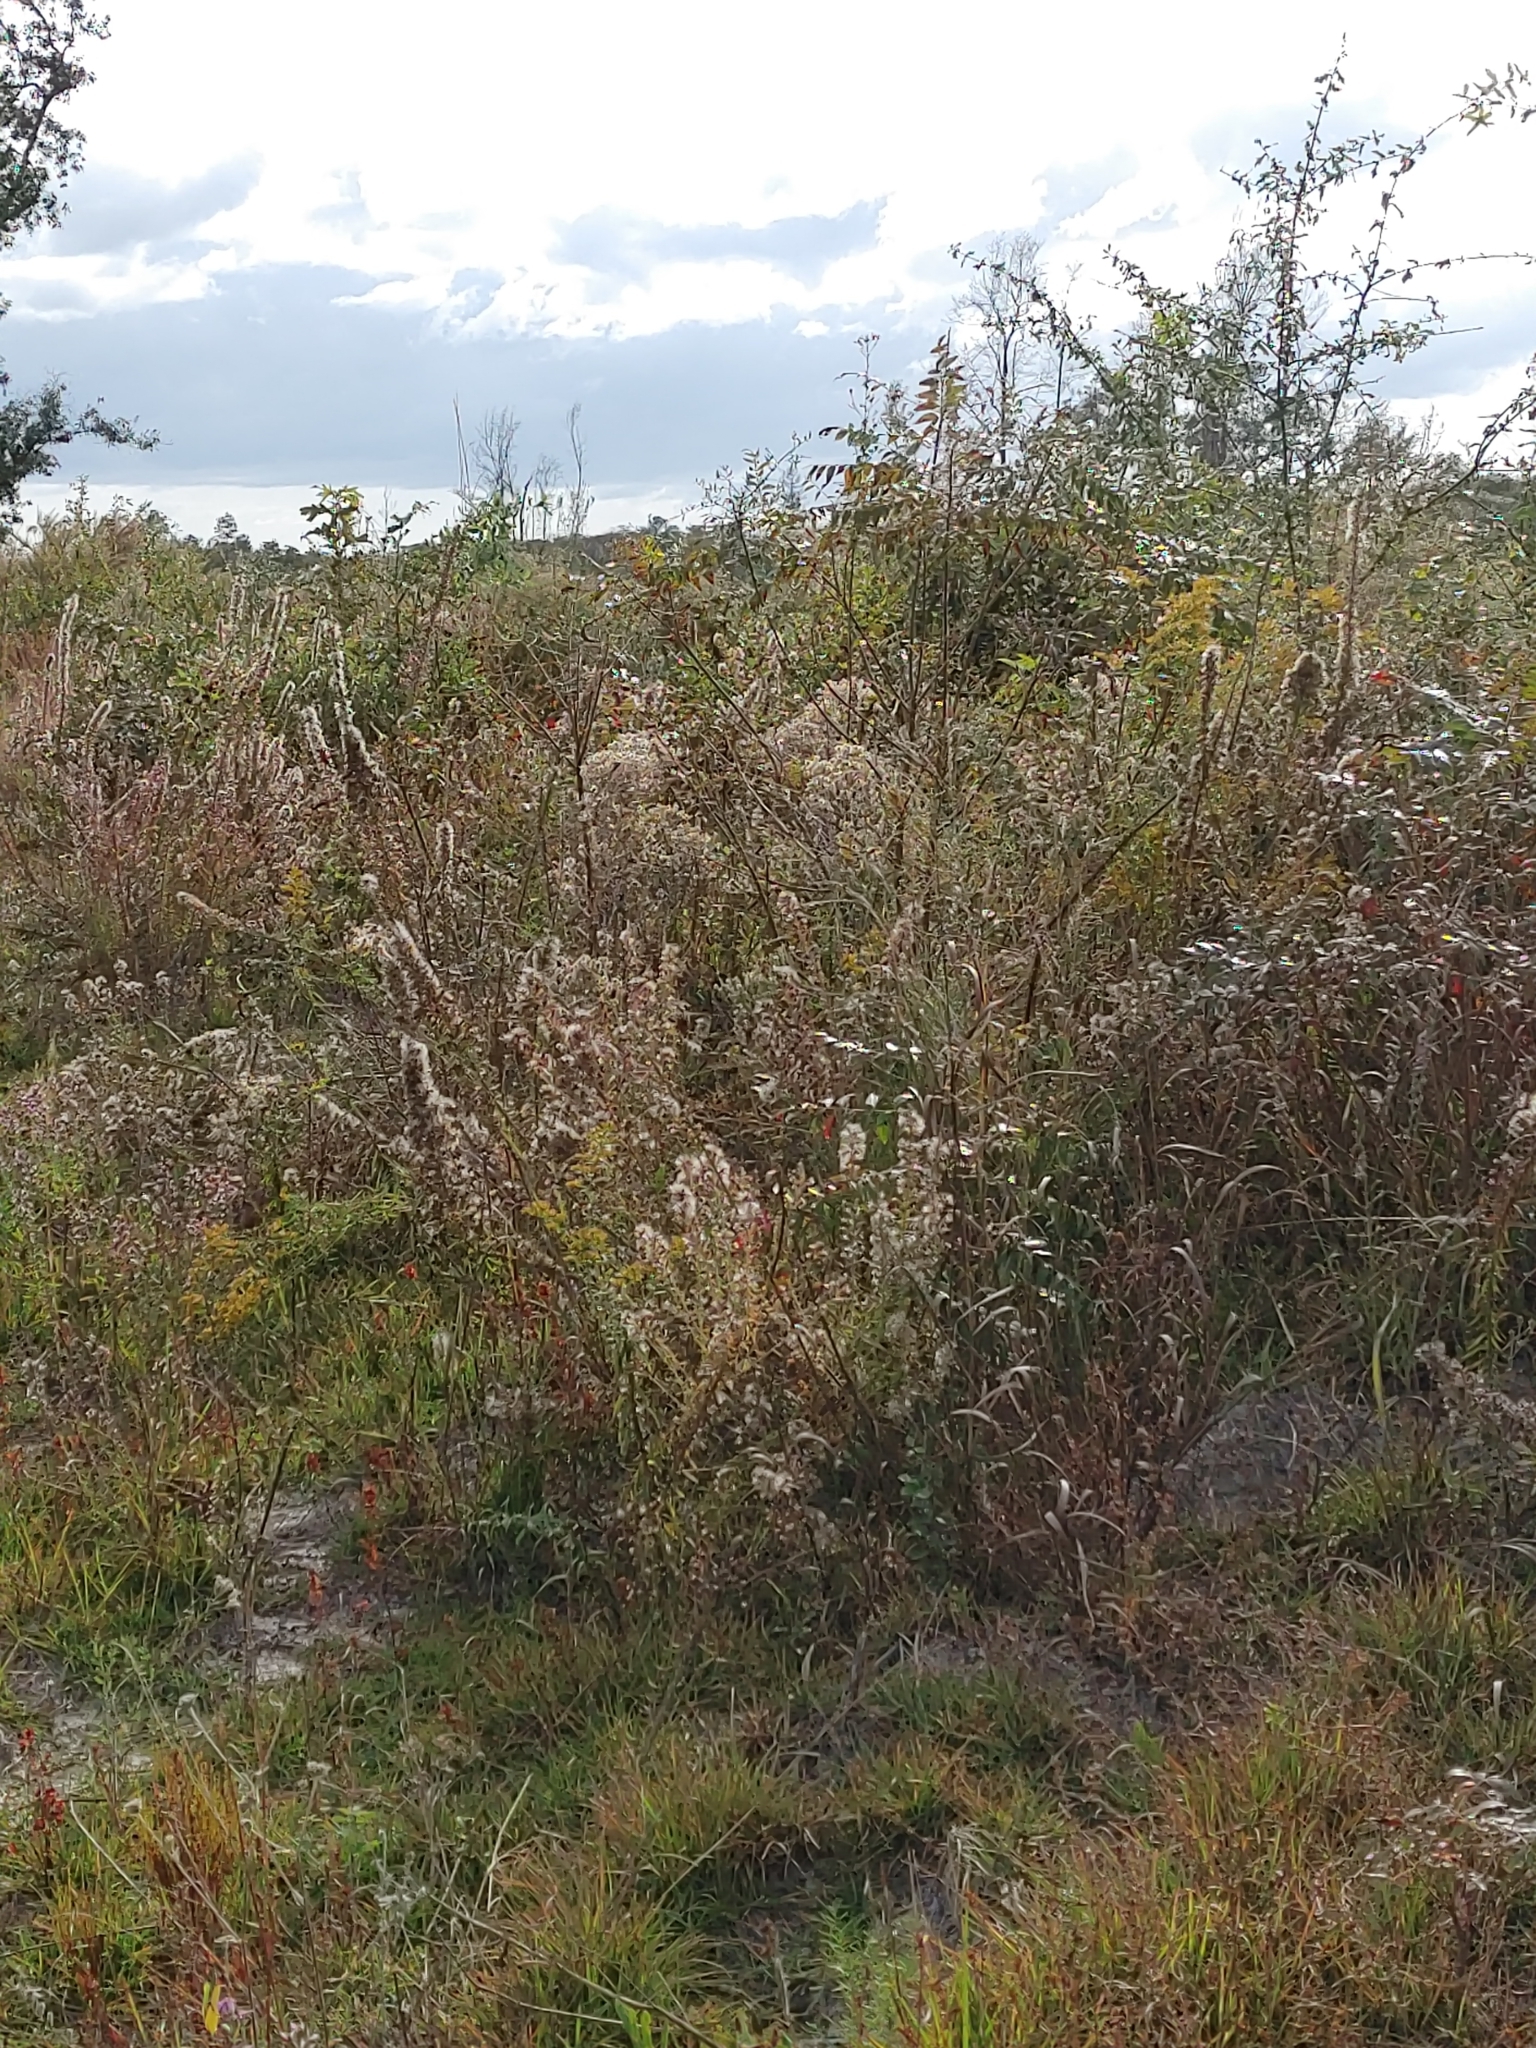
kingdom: Plantae
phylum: Tracheophyta
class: Magnoliopsida
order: Gentianales
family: Apocynaceae
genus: Asclepias
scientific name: Asclepias tuberosa
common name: Butterfly milkweed
